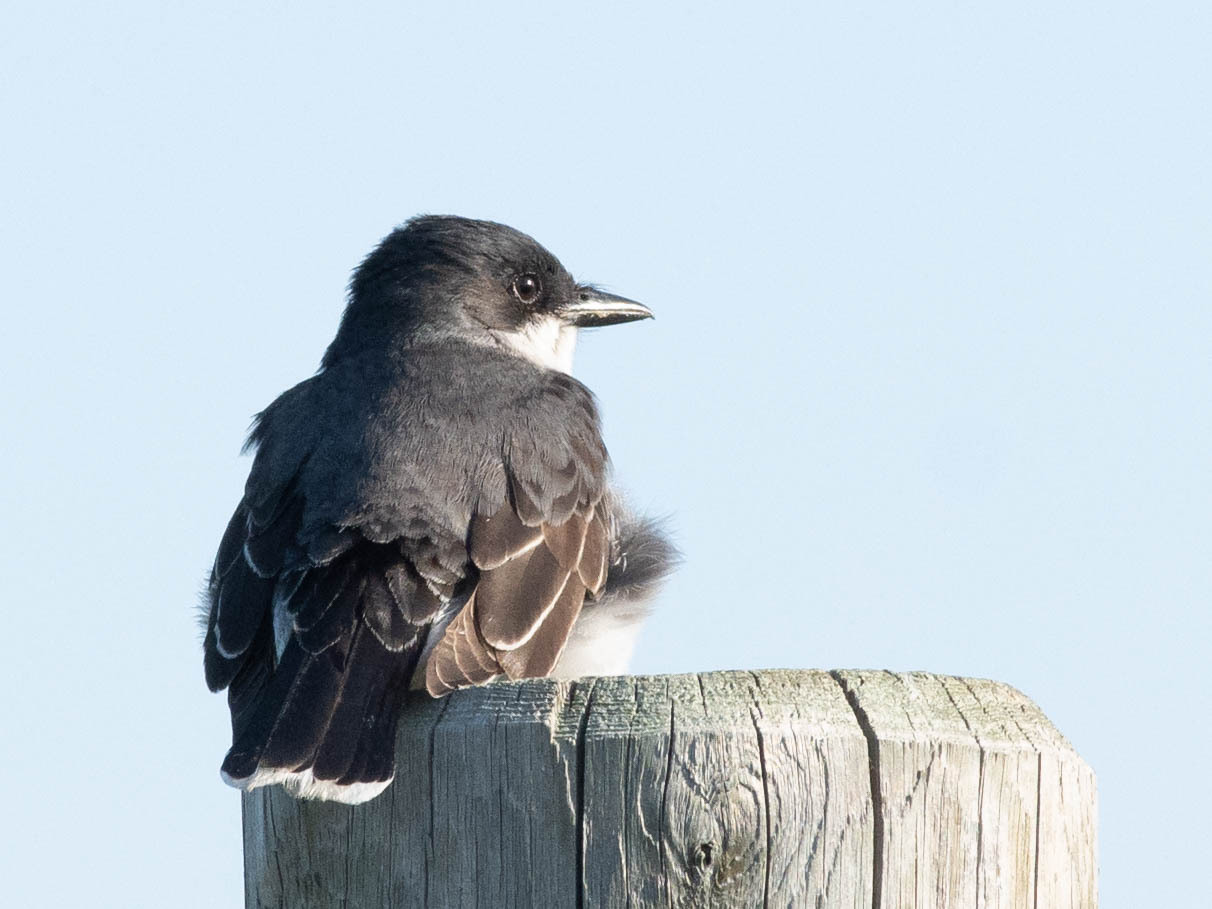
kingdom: Animalia
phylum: Chordata
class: Aves
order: Passeriformes
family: Tyrannidae
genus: Tyrannus
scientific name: Tyrannus tyrannus
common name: Eastern kingbird
